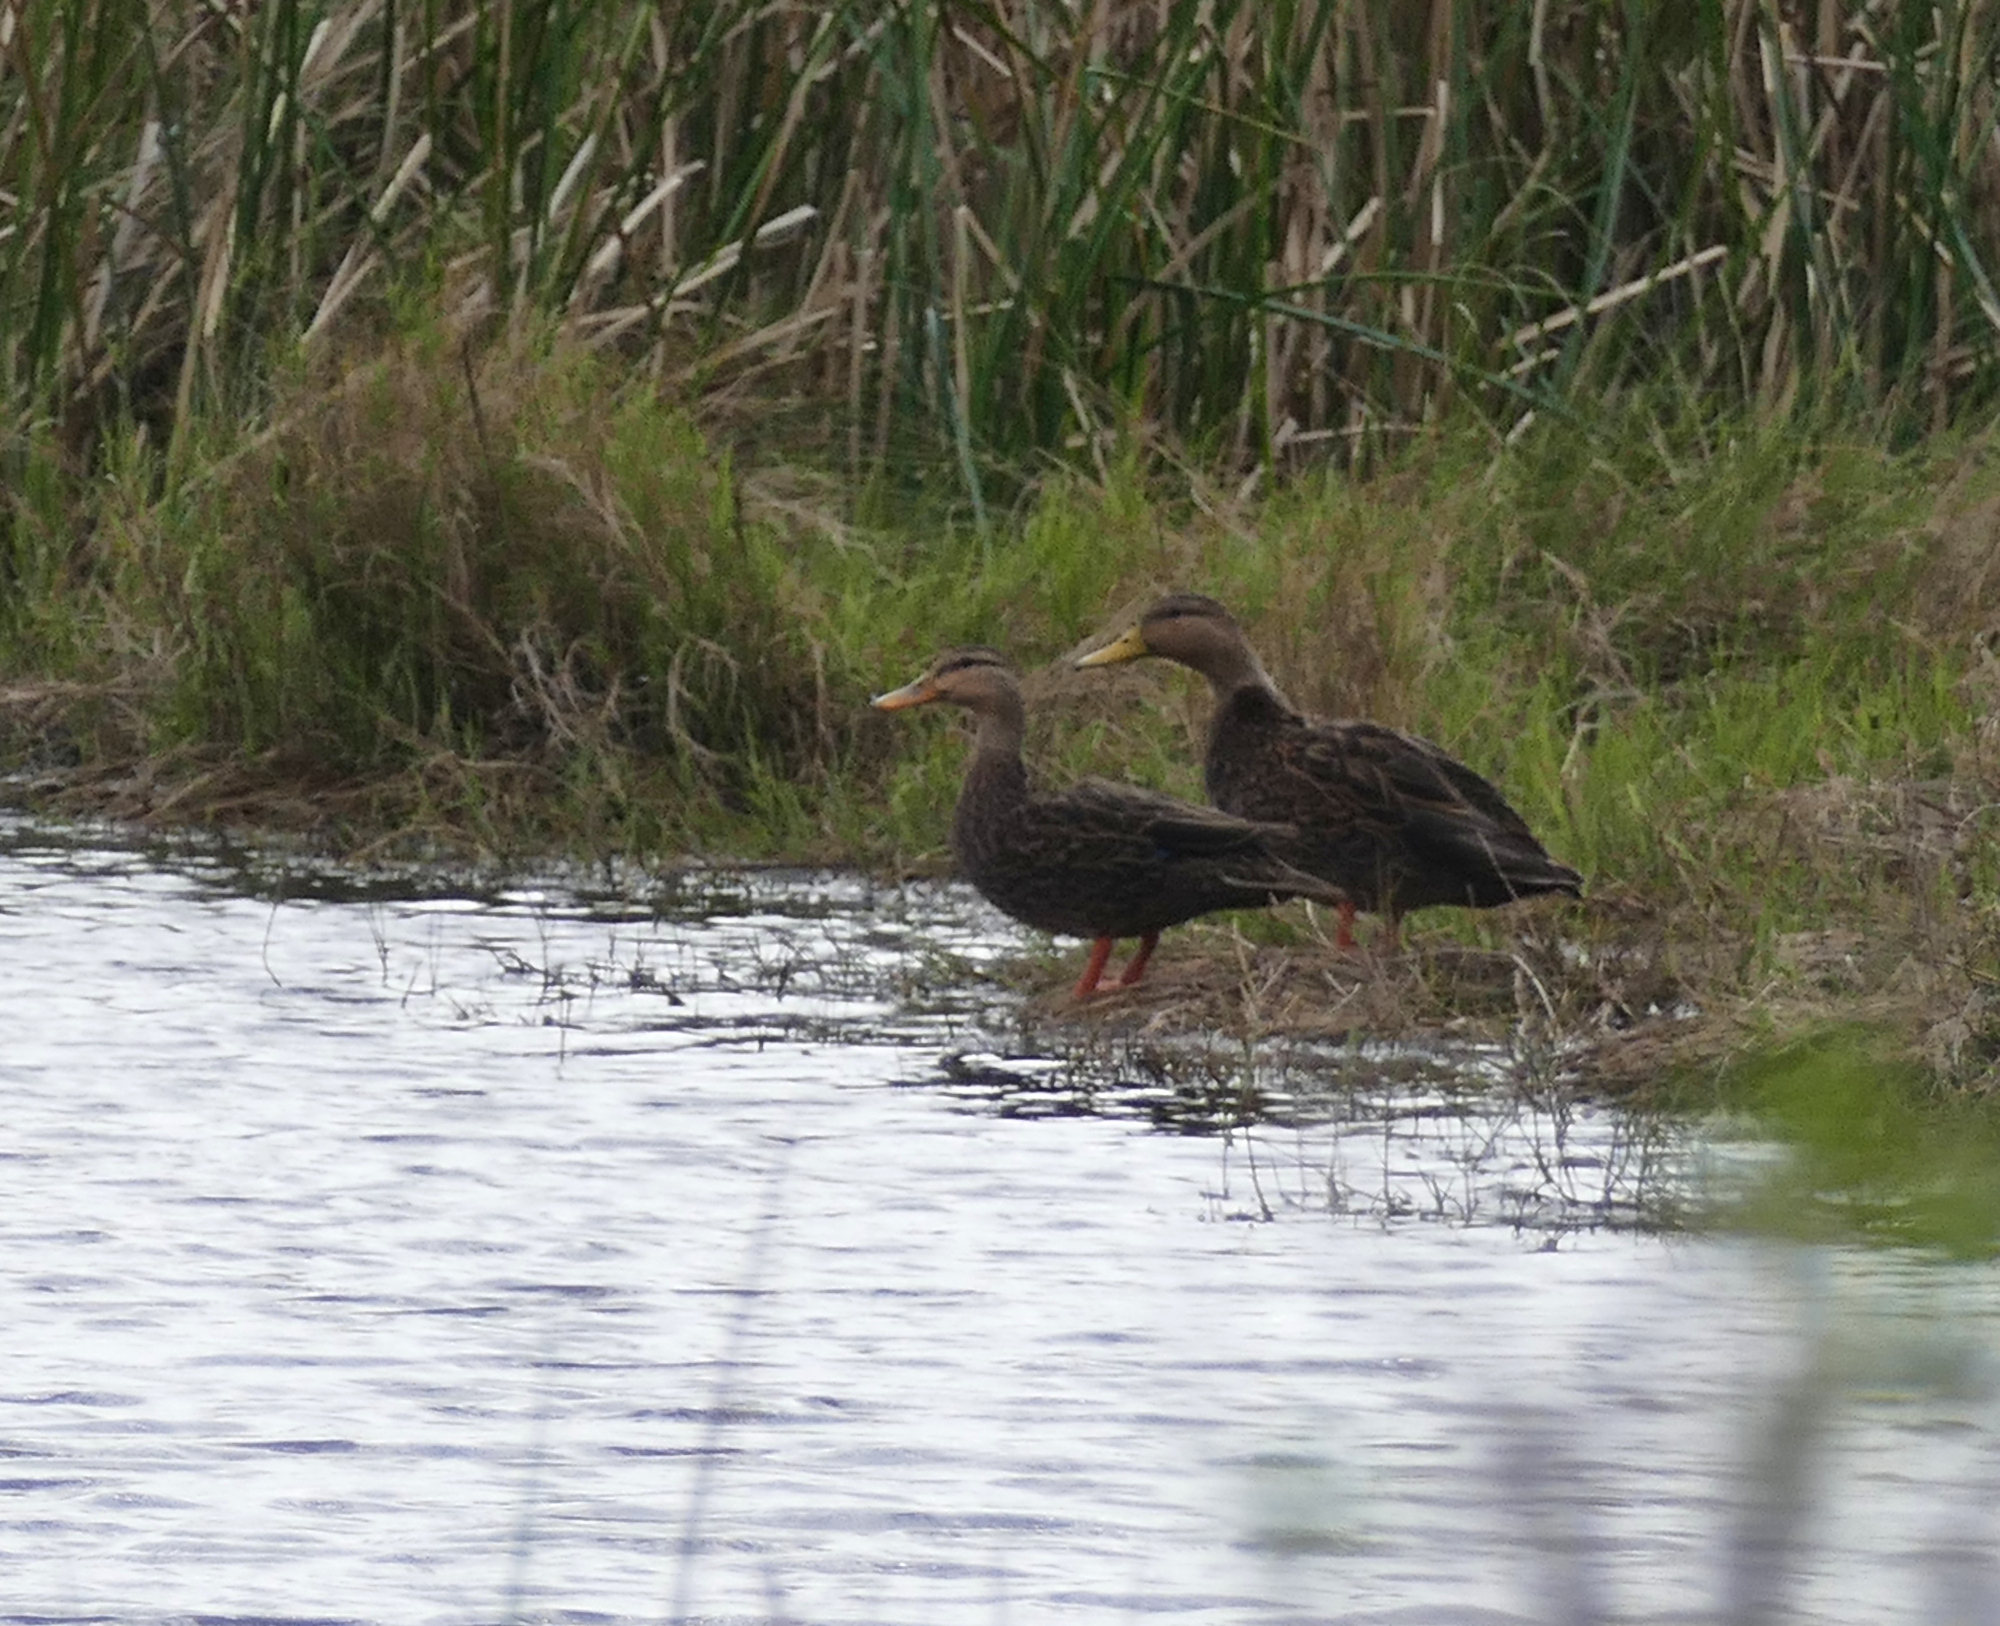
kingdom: Animalia
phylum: Chordata
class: Aves
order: Anseriformes
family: Anatidae
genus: Anas
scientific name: Anas fulvigula
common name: Mottled duck
